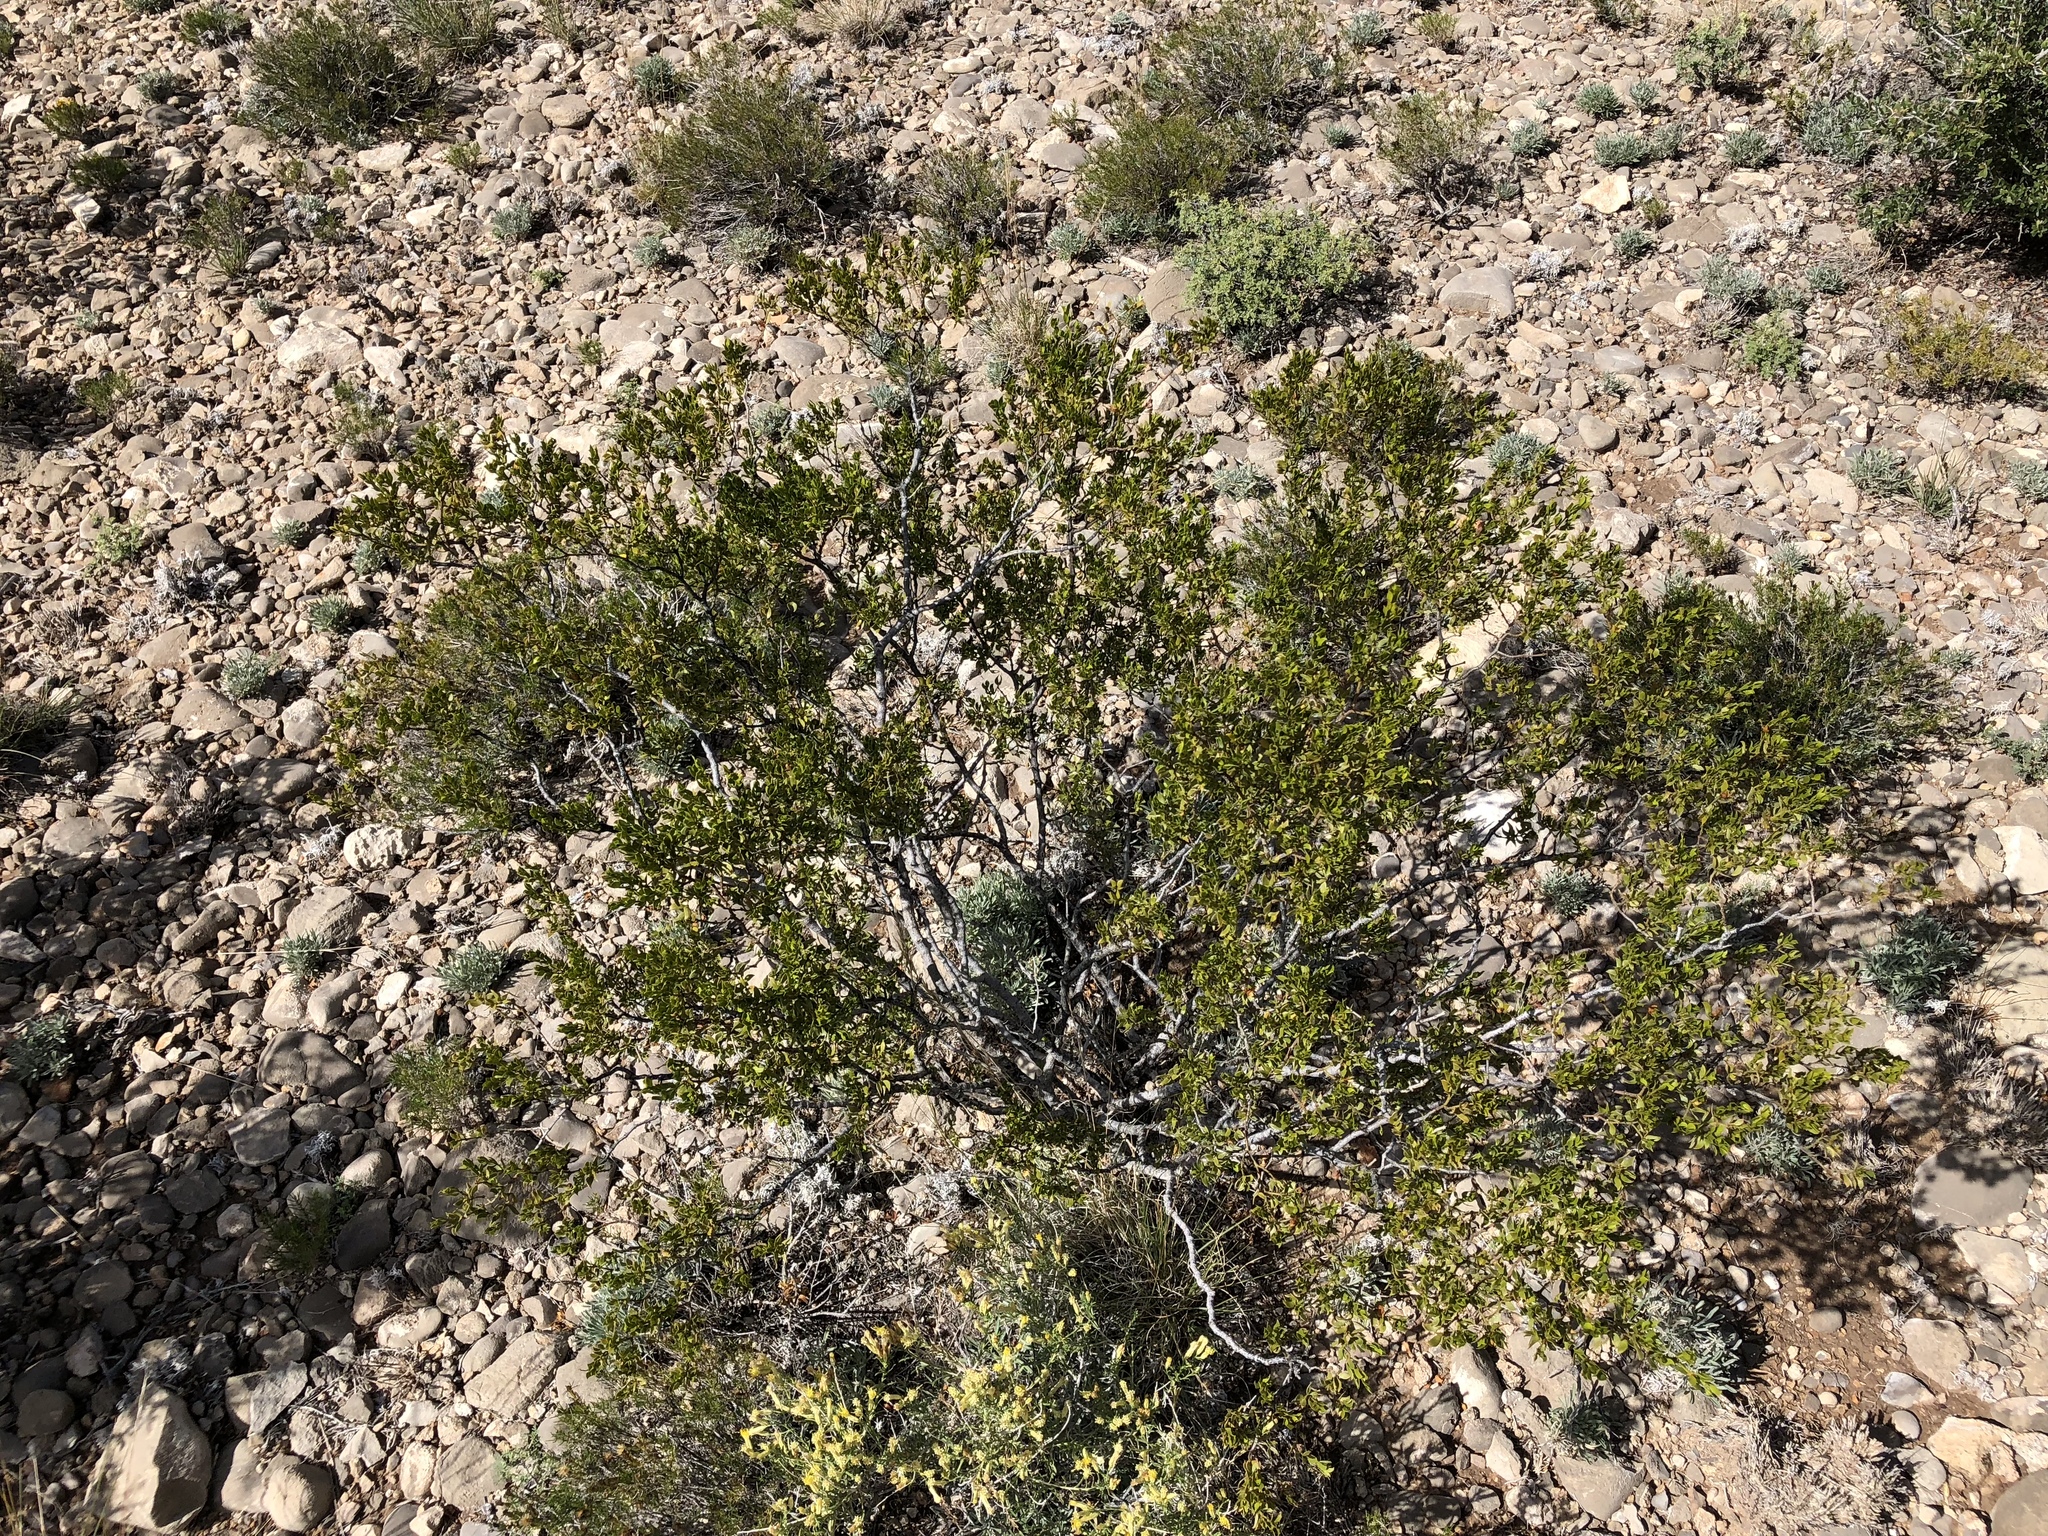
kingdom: Plantae
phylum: Tracheophyta
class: Magnoliopsida
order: Zygophyllales
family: Zygophyllaceae
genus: Larrea
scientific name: Larrea tridentata
